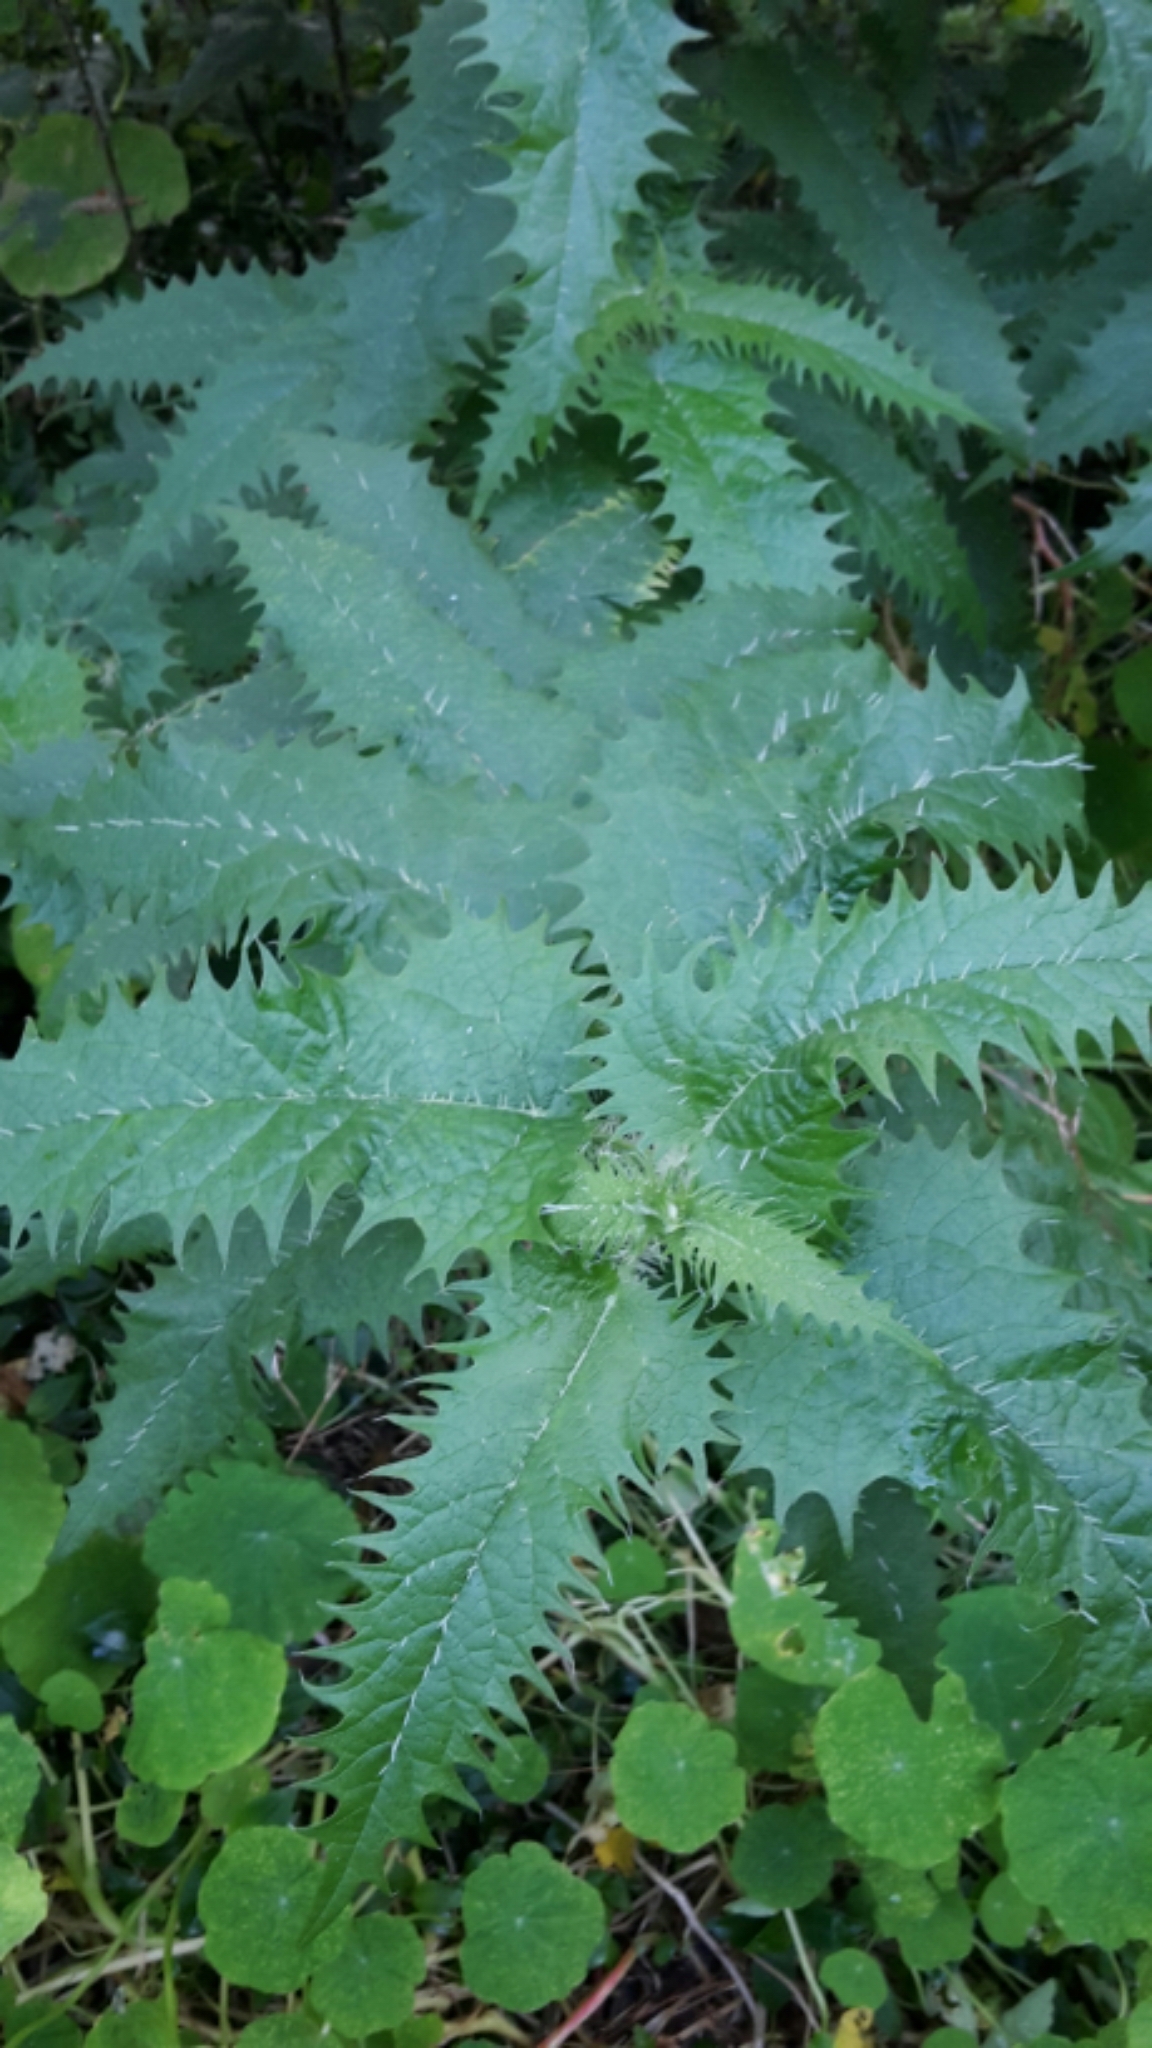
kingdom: Plantae
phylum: Tracheophyta
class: Magnoliopsida
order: Rosales
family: Urticaceae
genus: Urtica
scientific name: Urtica ferox
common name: Tree nettle
